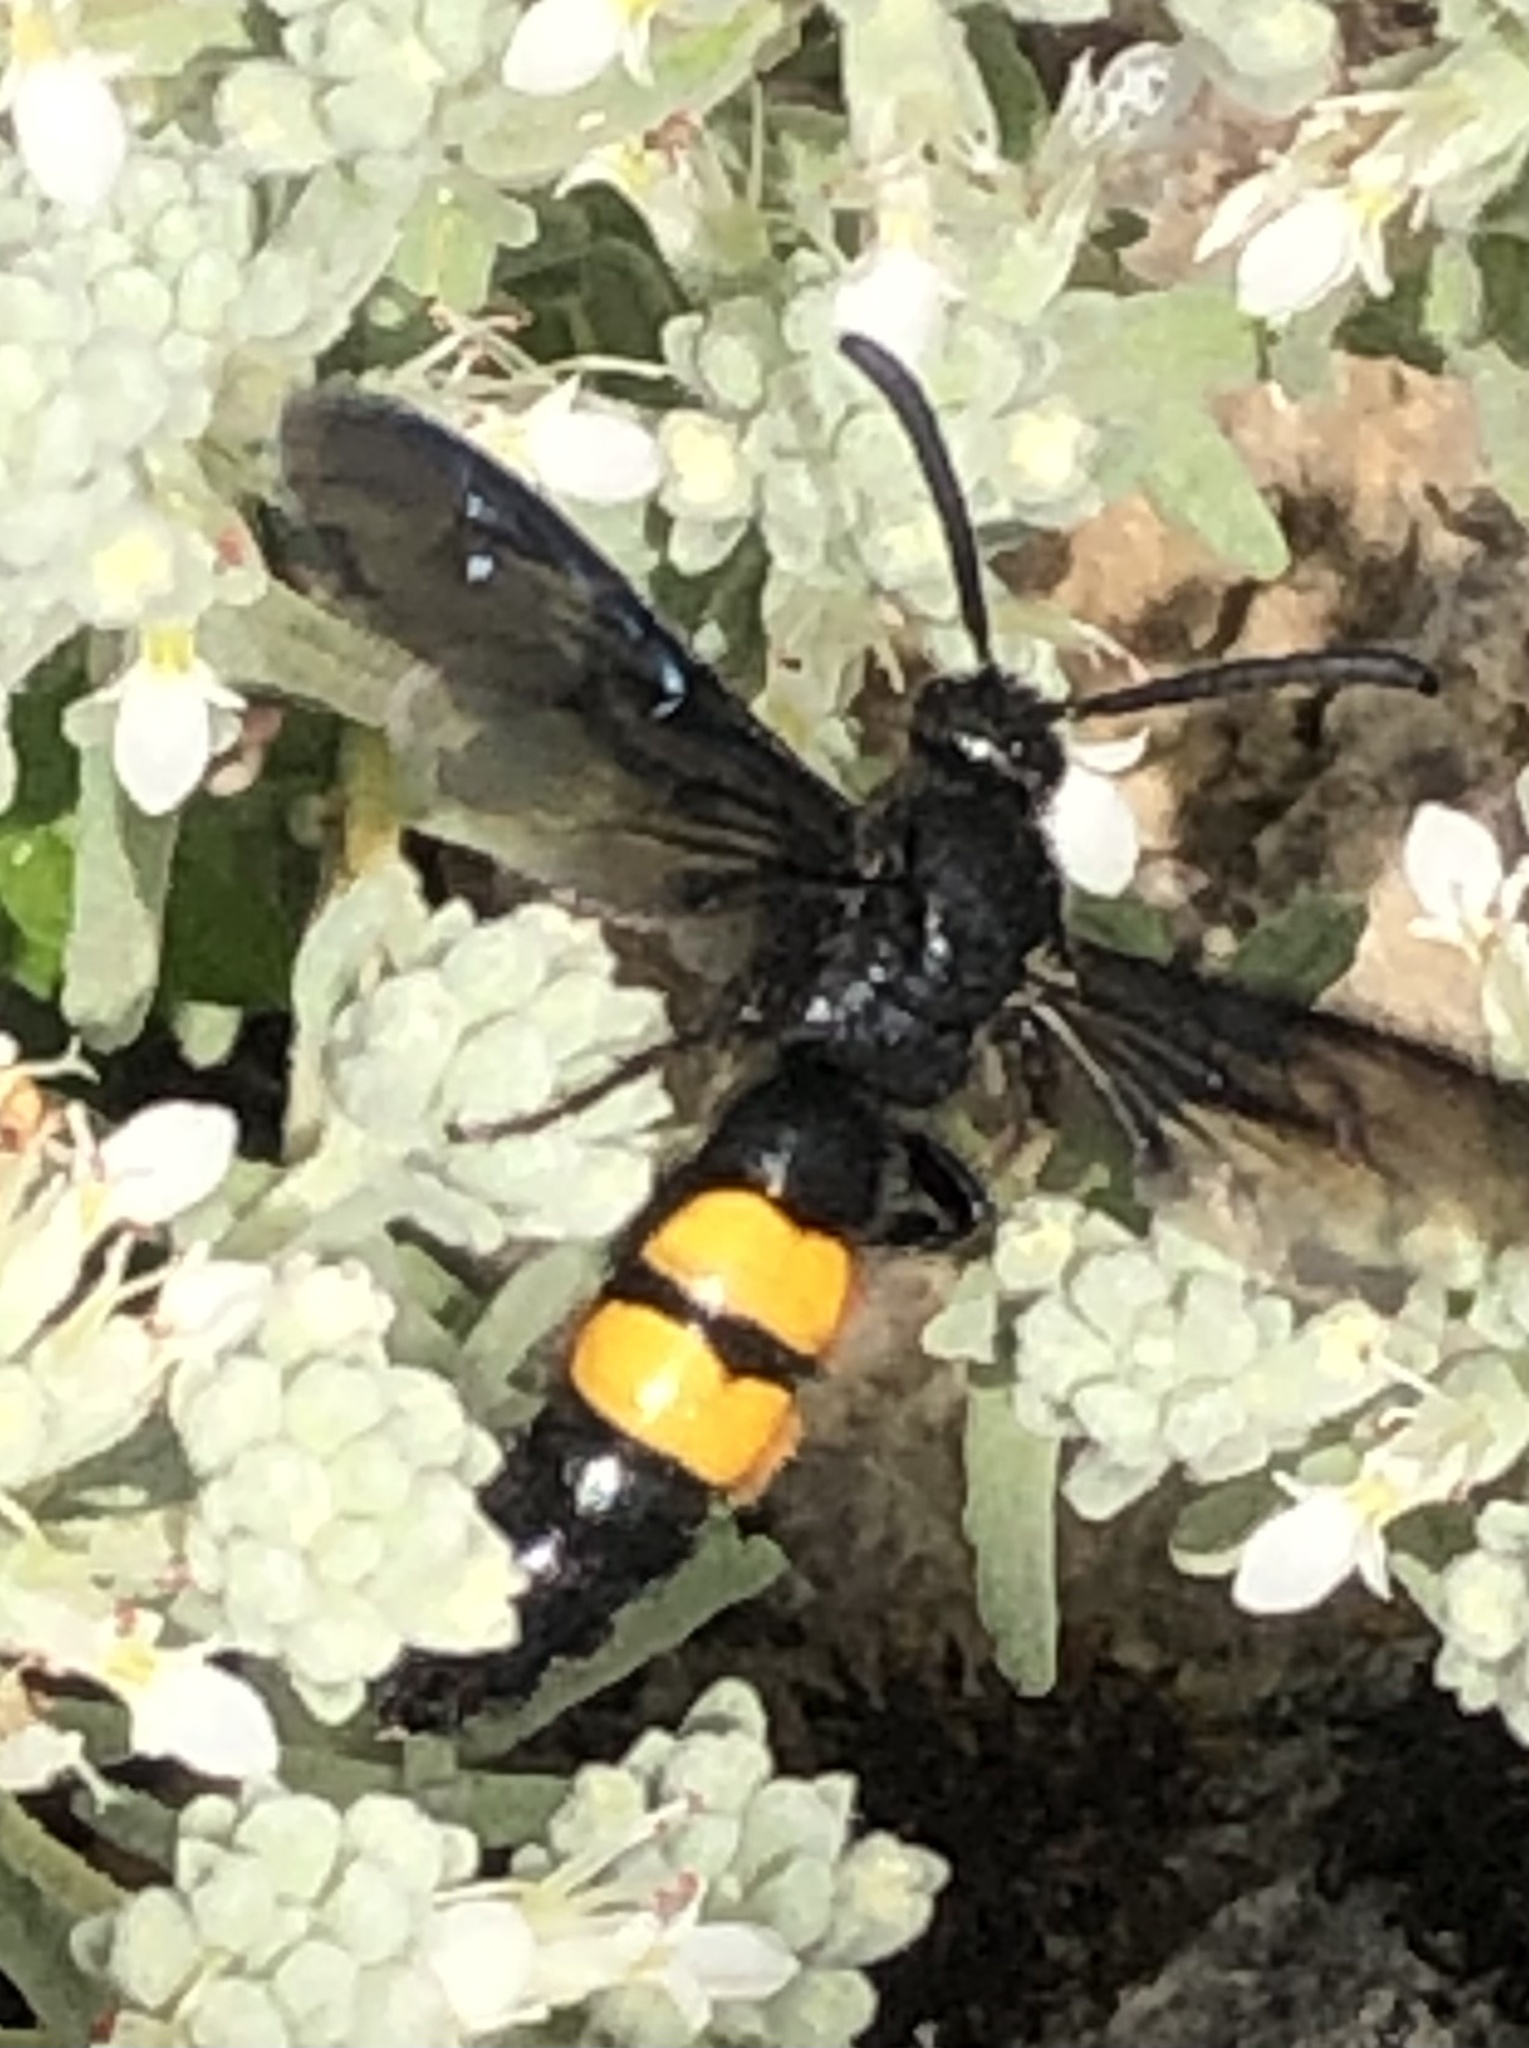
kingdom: Animalia
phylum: Arthropoda
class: Insecta
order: Hymenoptera
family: Scoliidae
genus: Scolia
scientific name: Scolia hirta
